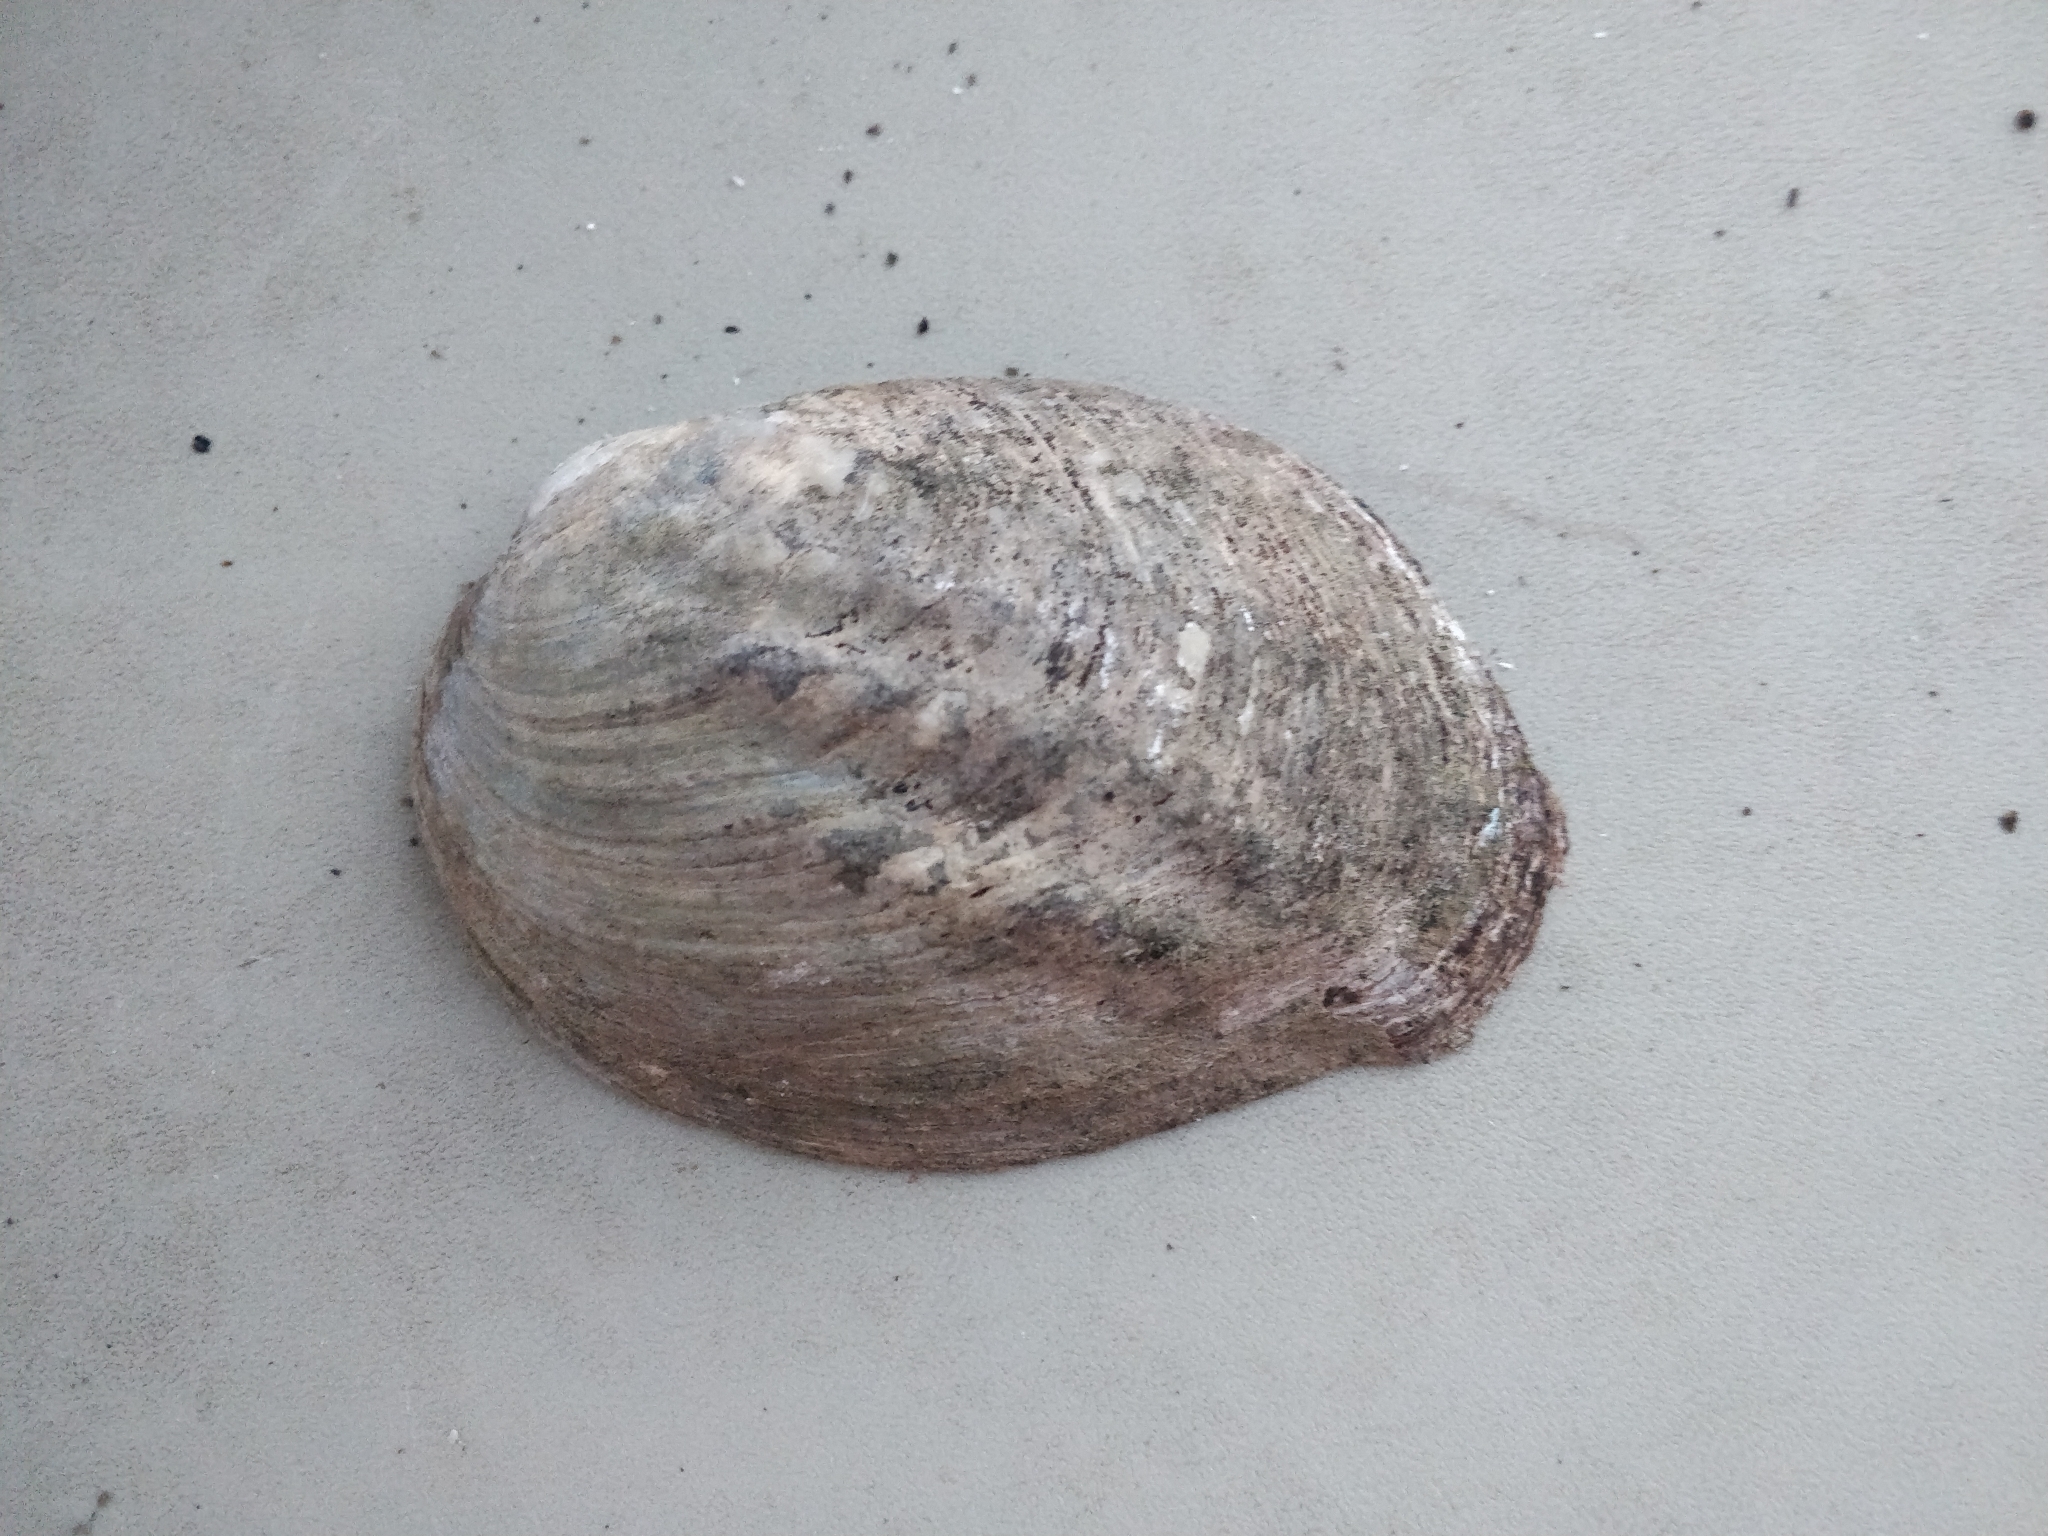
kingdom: Animalia
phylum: Mollusca
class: Bivalvia
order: Unionida
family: Unionidae
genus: Amblema
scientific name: Amblema plicata
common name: Threeridge
